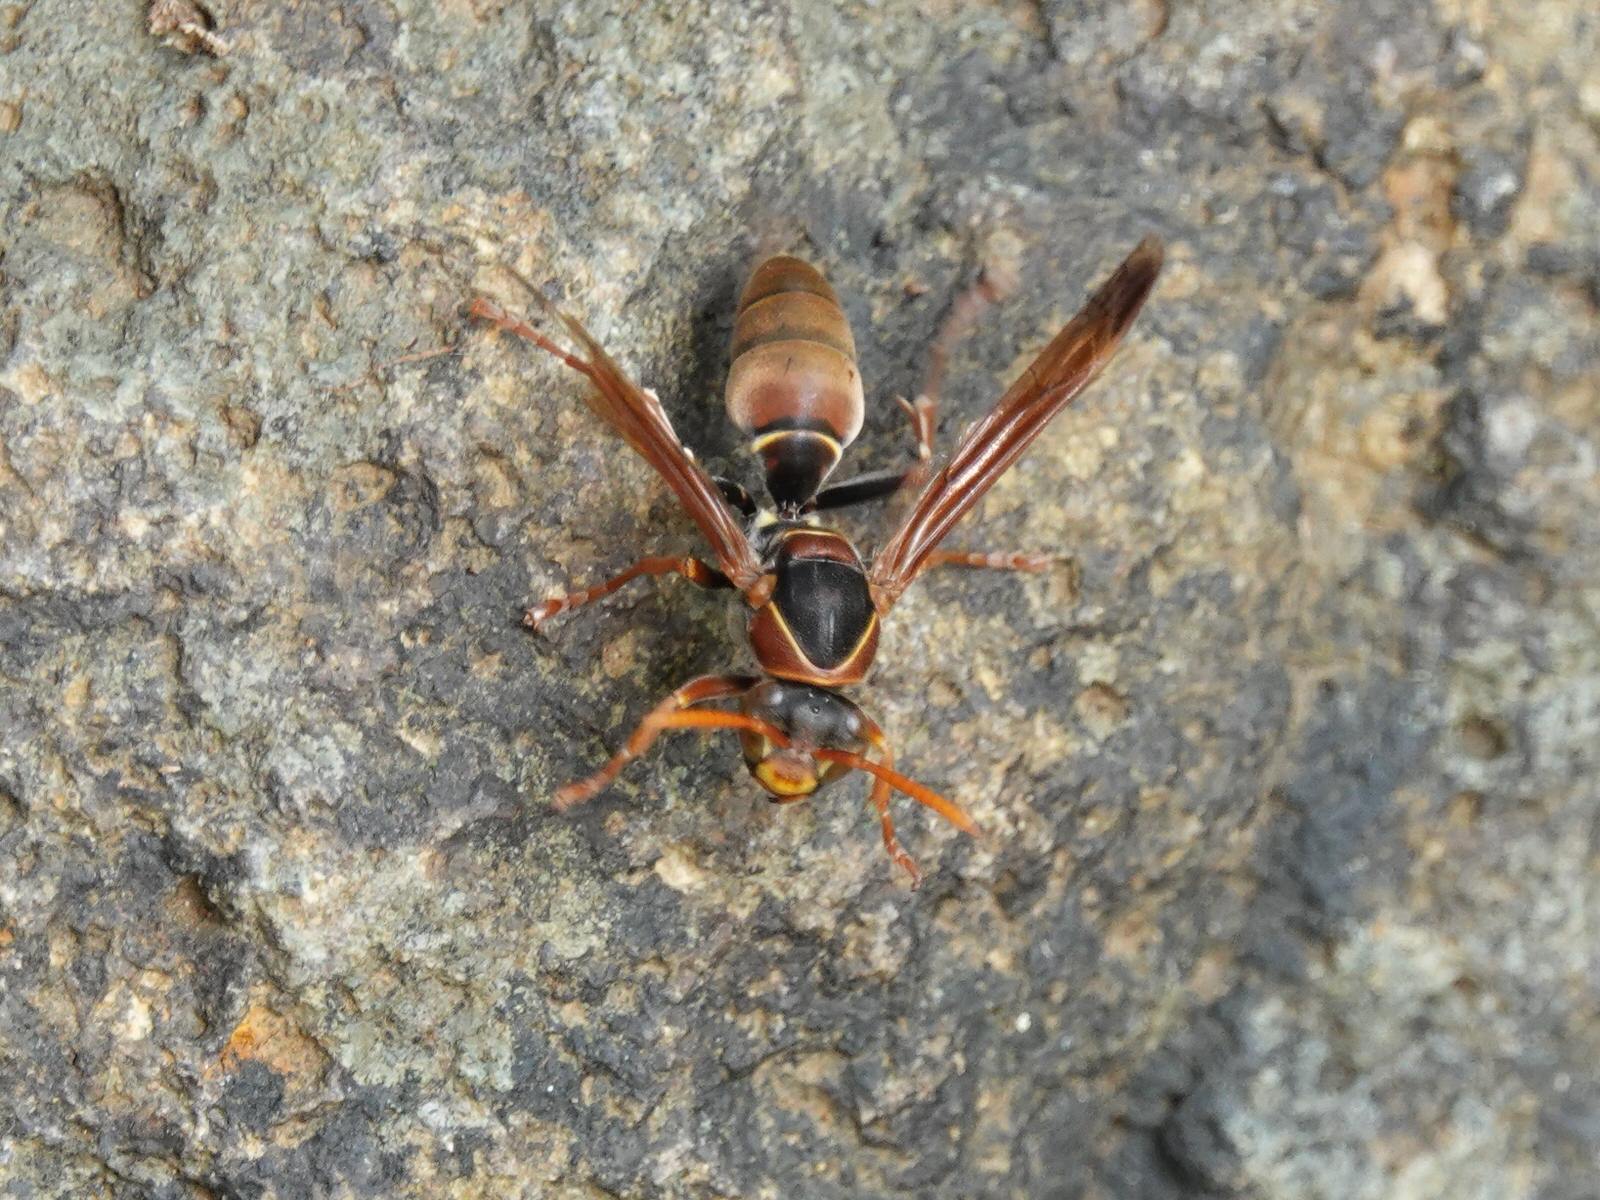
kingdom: Animalia
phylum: Arthropoda
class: Insecta
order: Hymenoptera
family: Eumenidae
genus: Polistes
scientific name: Polistes humilis
